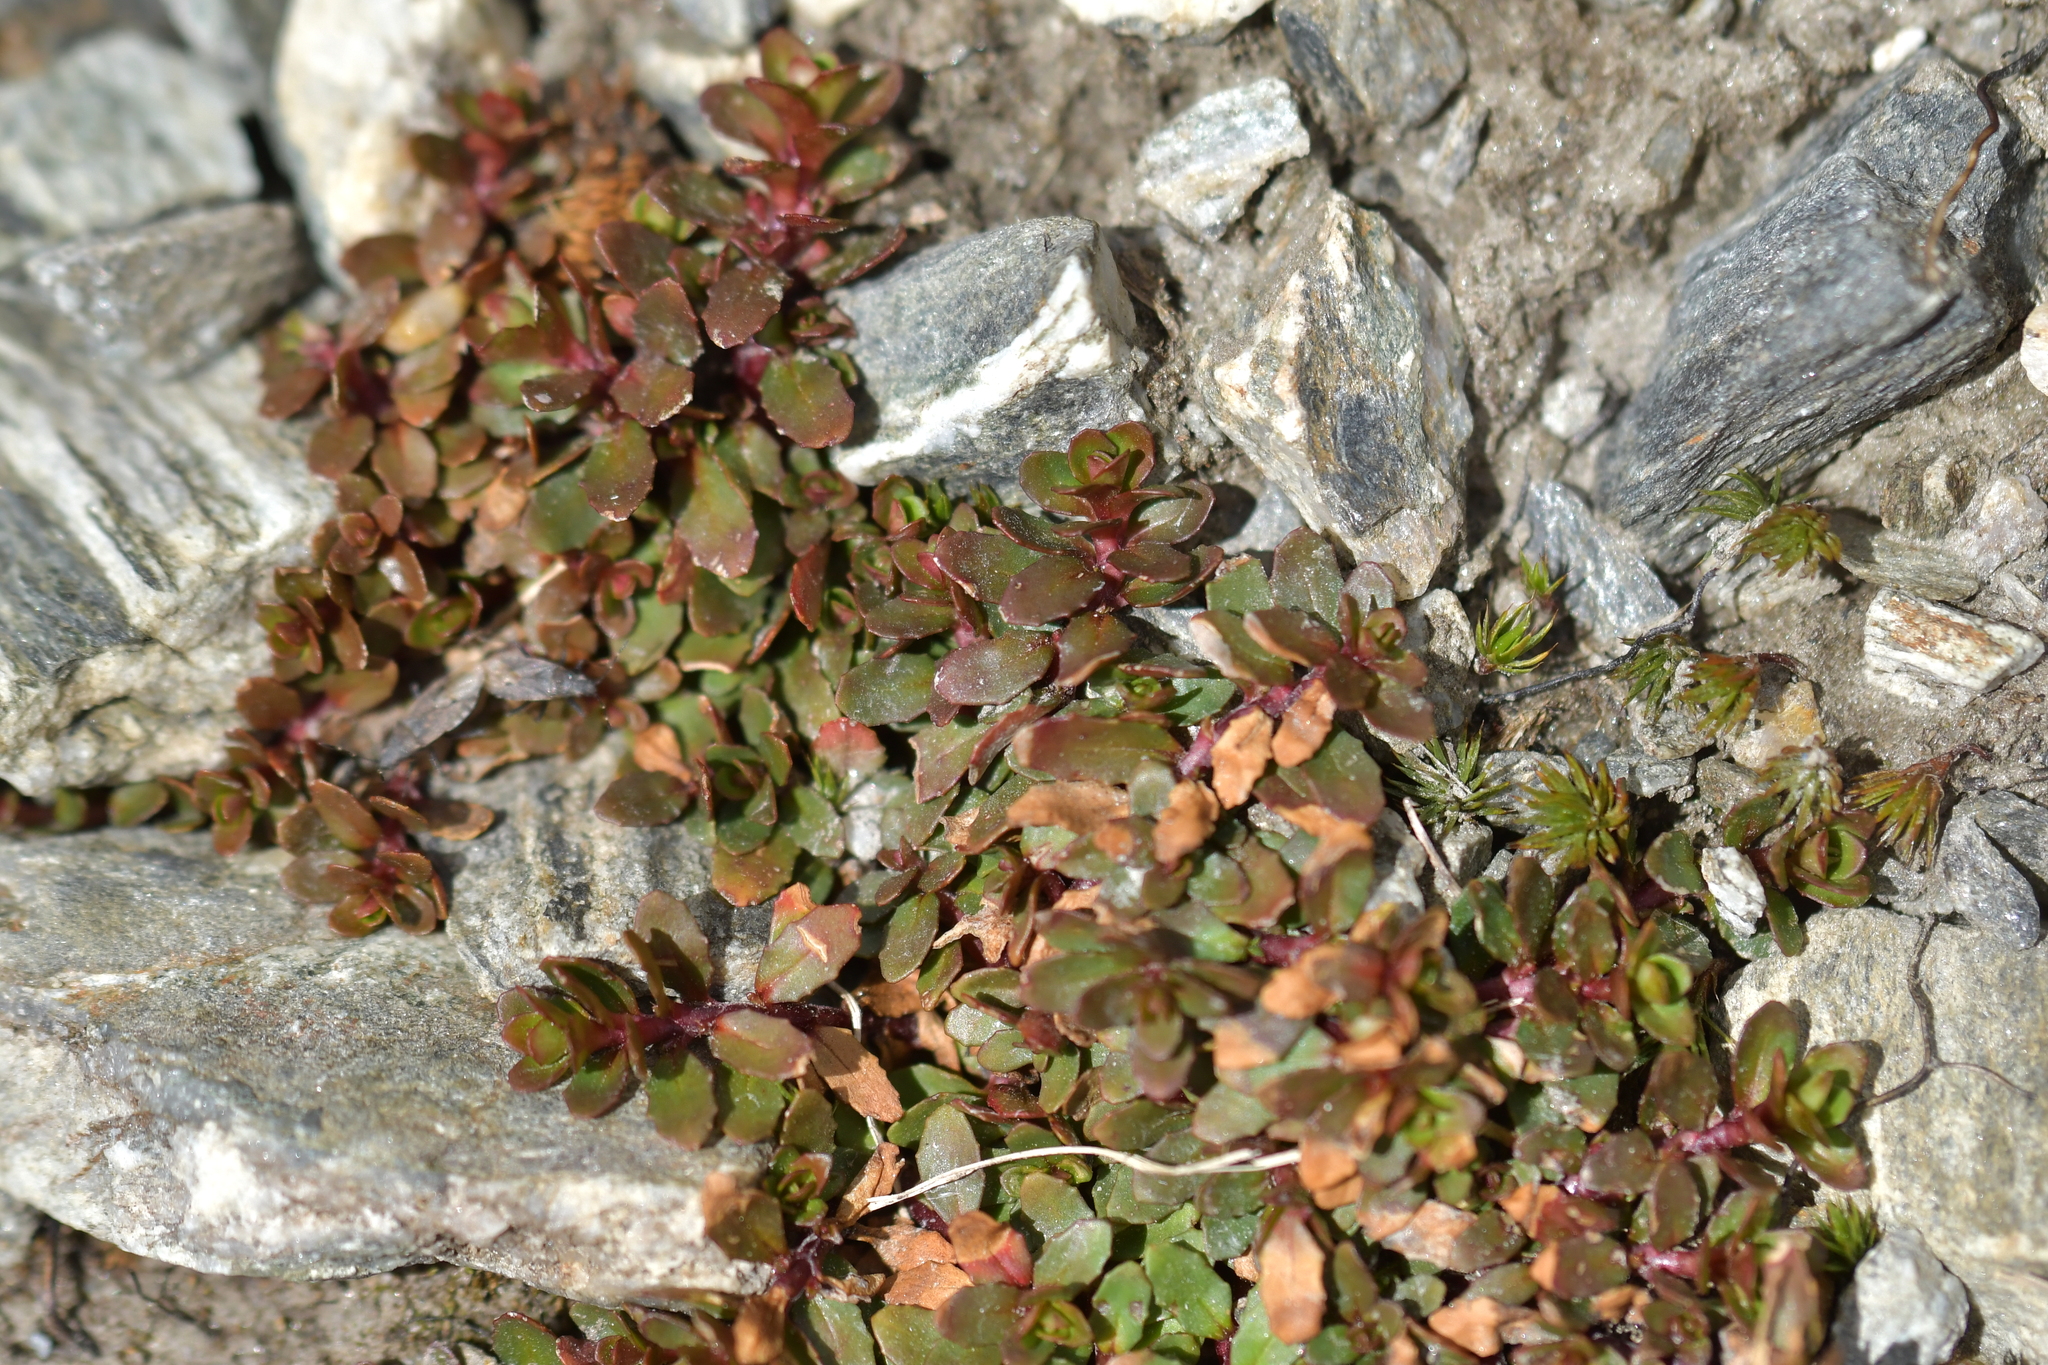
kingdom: Plantae
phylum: Tracheophyta
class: Magnoliopsida
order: Myrtales
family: Onagraceae
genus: Epilobium
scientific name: Epilobium tasmanicum
